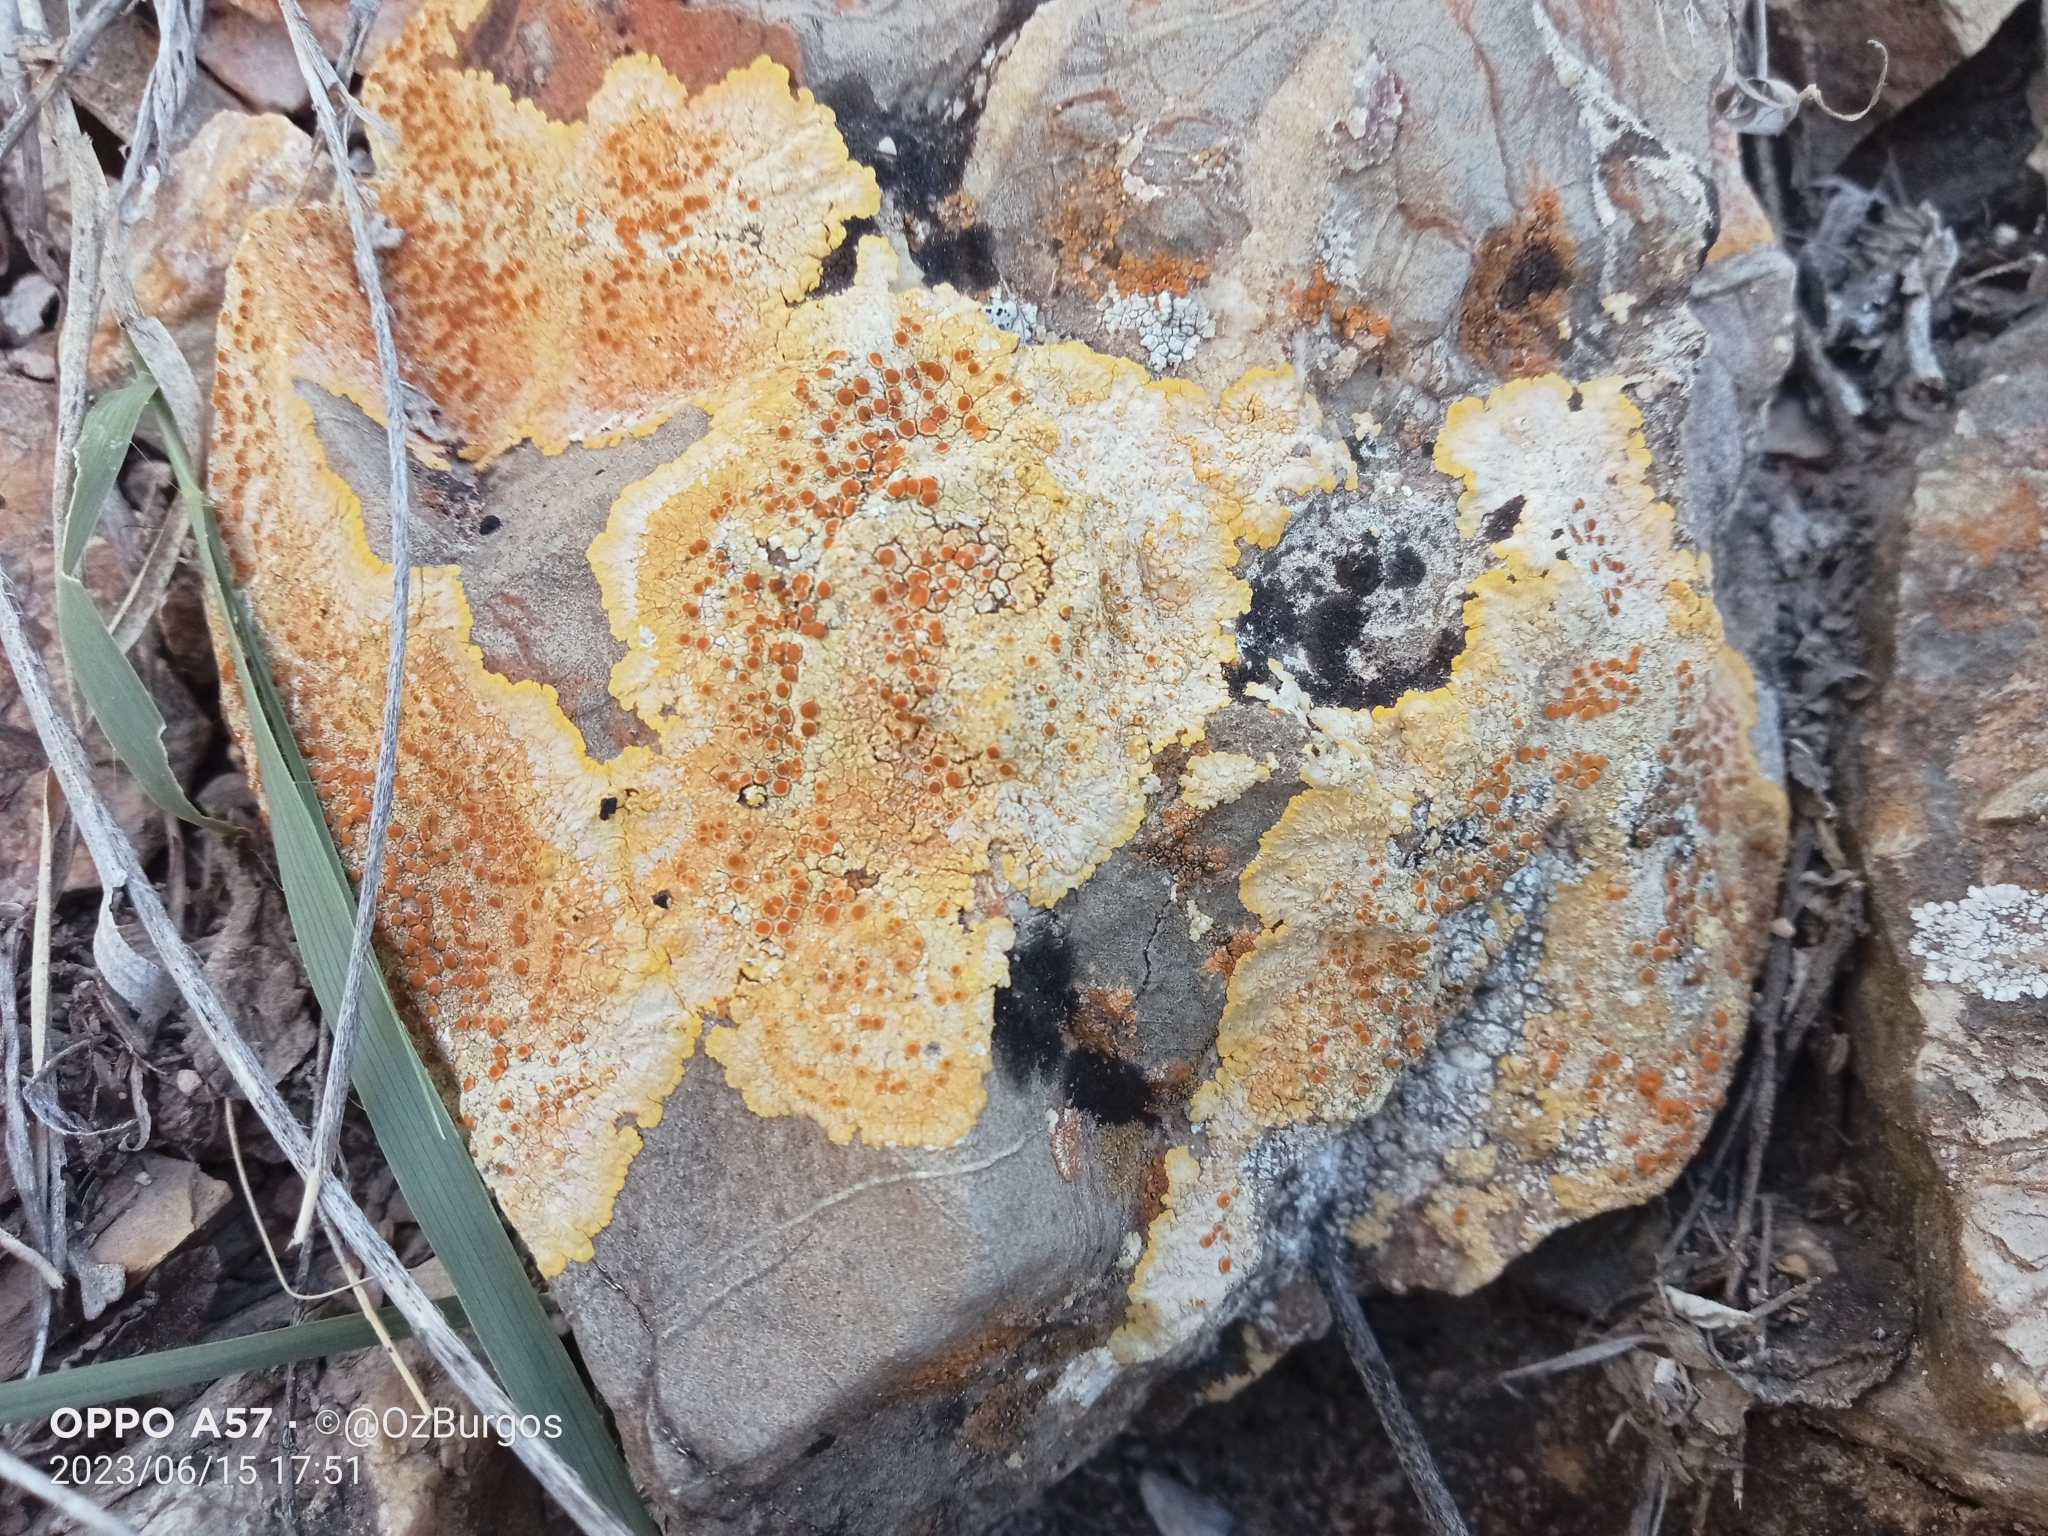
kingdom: Fungi
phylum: Ascomycota
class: Lecanoromycetes
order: Teloschistales
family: Teloschistaceae
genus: Caloplaca
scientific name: Caloplaca eugyra
